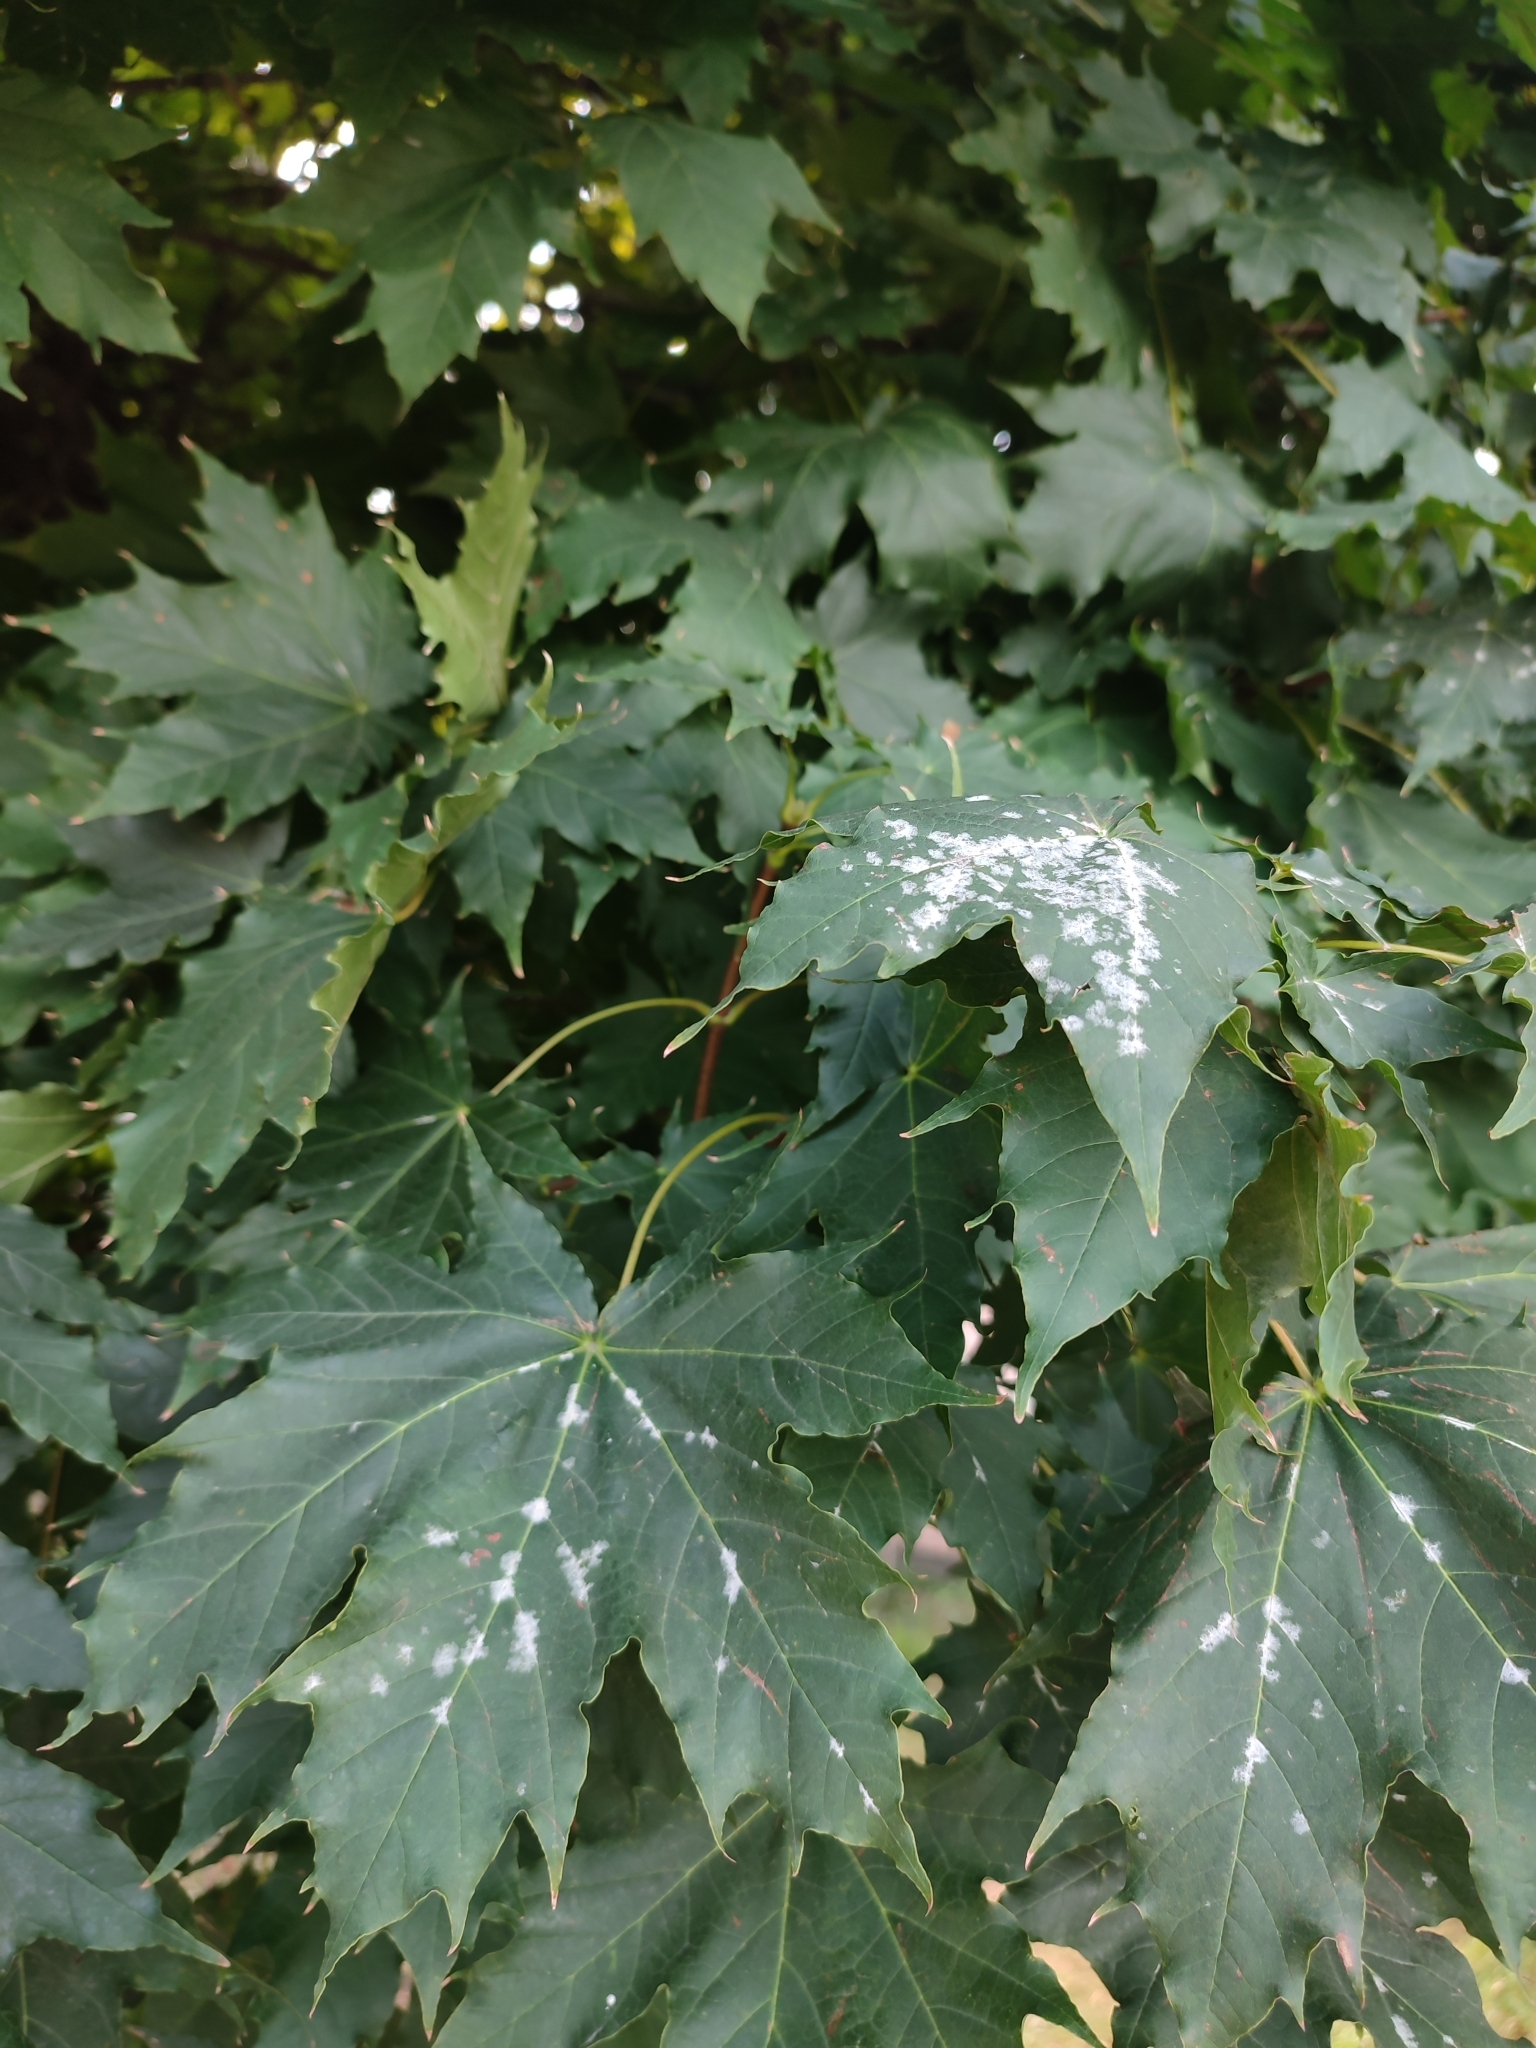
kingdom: Fungi
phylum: Ascomycota
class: Leotiomycetes
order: Helotiales
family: Erysiphaceae
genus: Sawadaea
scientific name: Sawadaea tulasnei
